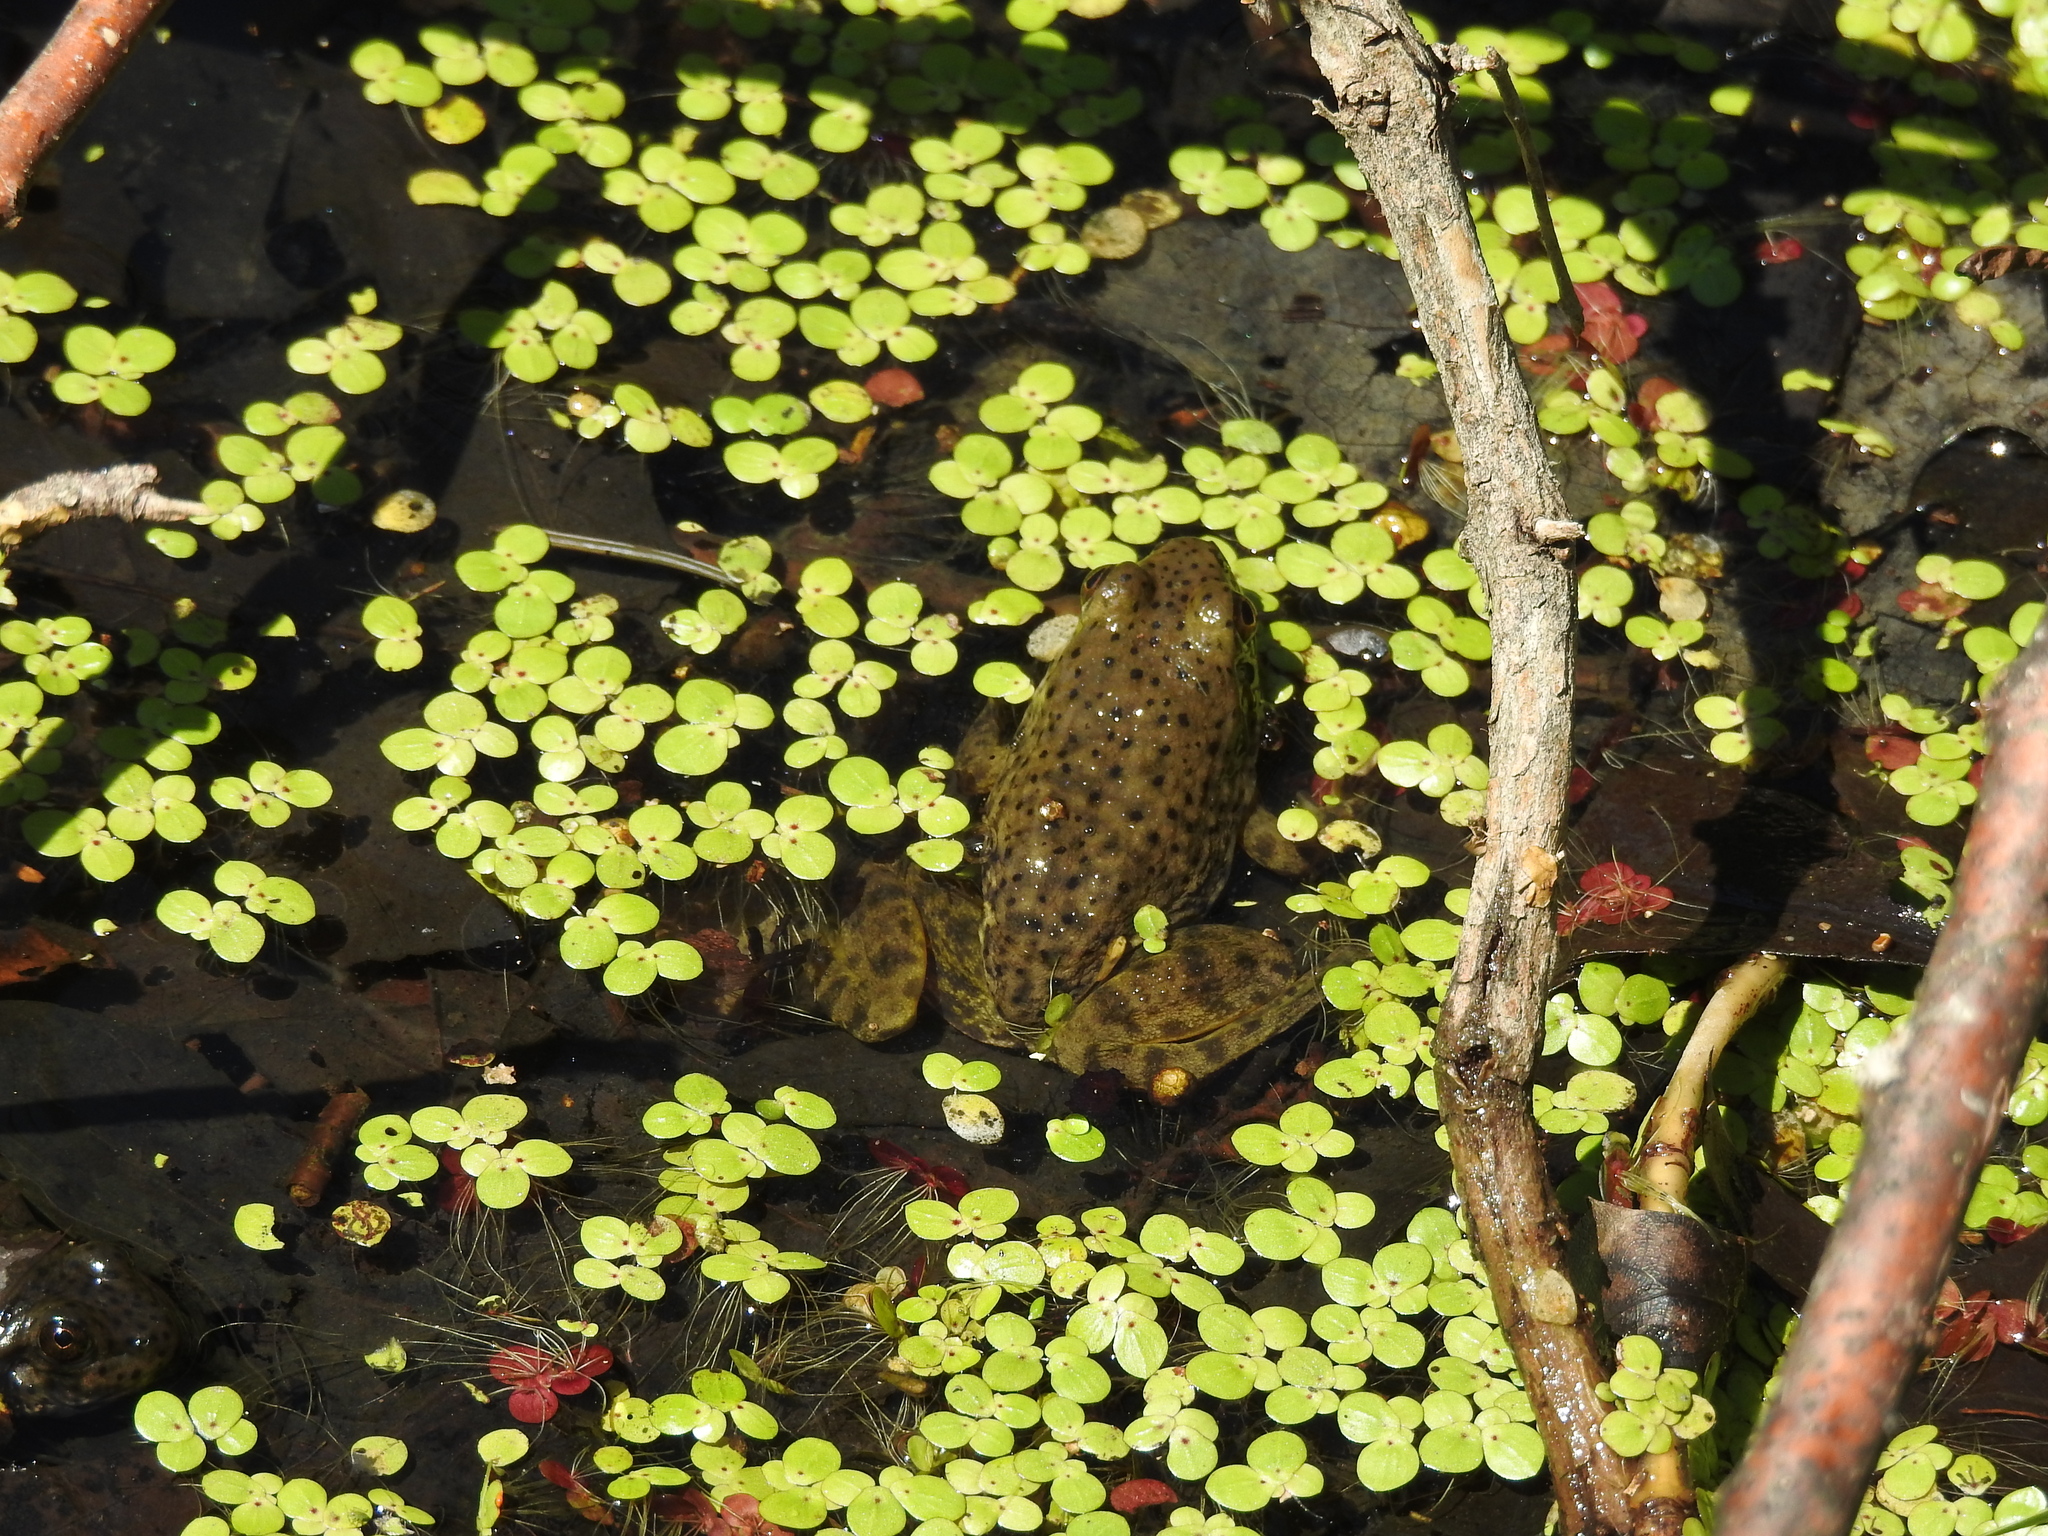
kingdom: Animalia
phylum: Chordata
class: Amphibia
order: Anura
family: Ranidae
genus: Lithobates
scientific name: Lithobates catesbeianus
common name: American bullfrog
